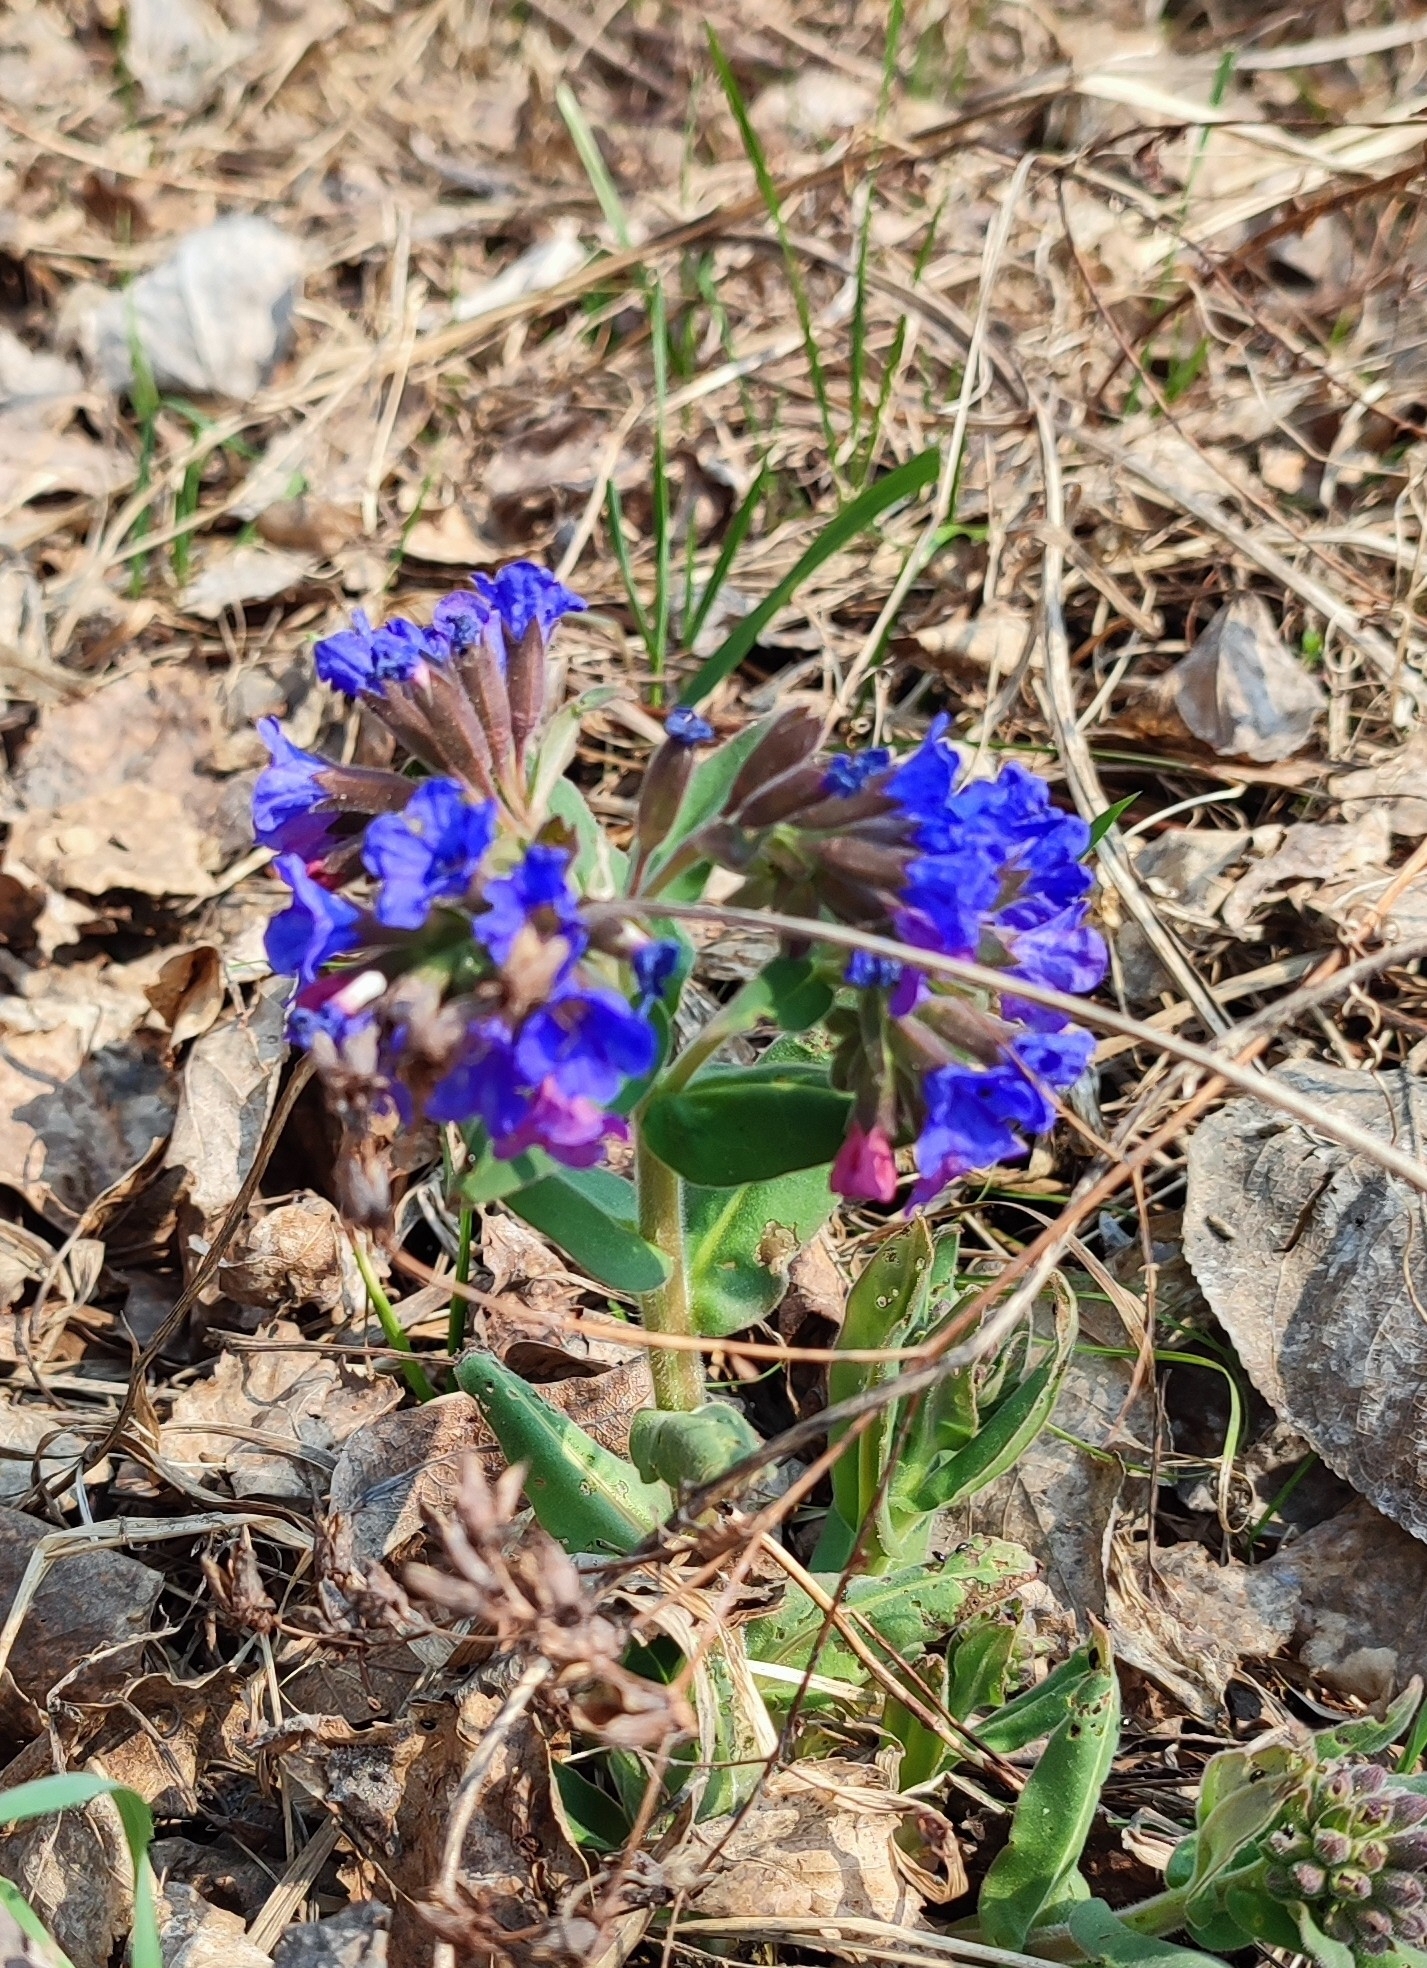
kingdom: Plantae
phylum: Tracheophyta
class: Magnoliopsida
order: Boraginales
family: Boraginaceae
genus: Pulmonaria
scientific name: Pulmonaria mollis
